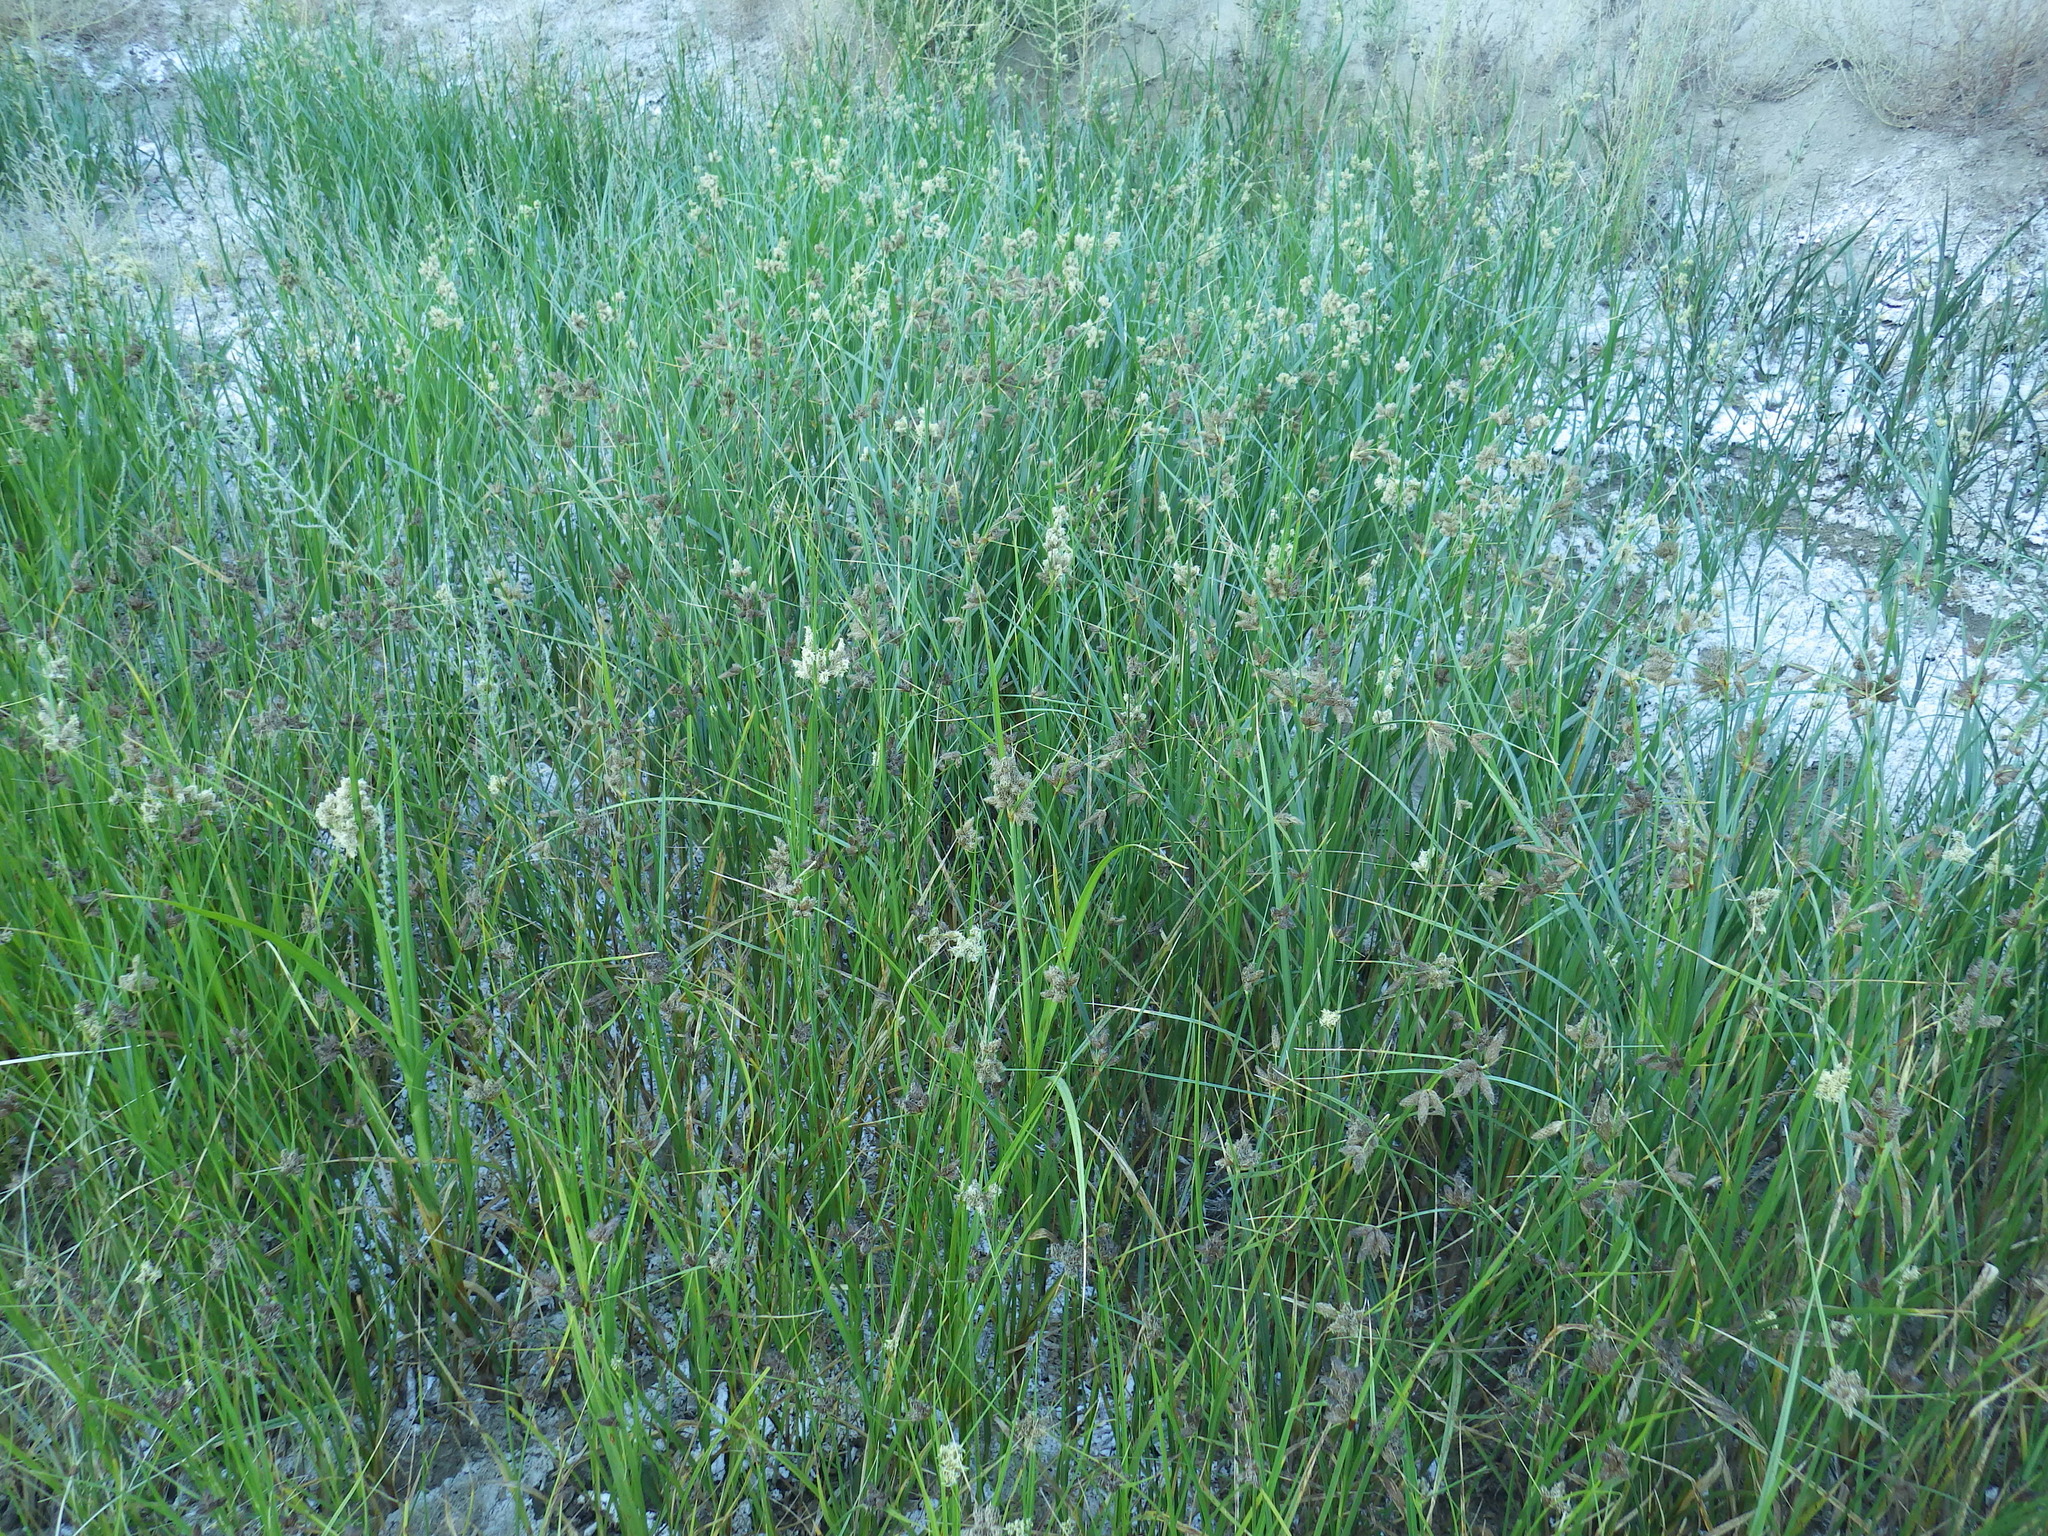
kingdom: Plantae
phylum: Tracheophyta
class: Liliopsida
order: Poales
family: Cyperaceae
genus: Bolboschoenus
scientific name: Bolboschoenus maritimus
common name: Sea club-rush
